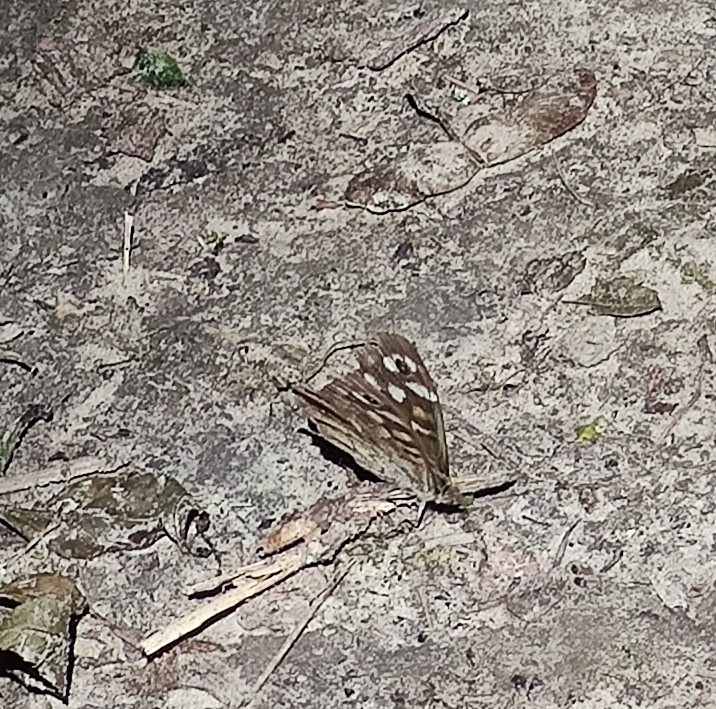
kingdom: Animalia
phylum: Arthropoda
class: Insecta
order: Lepidoptera
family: Nymphalidae
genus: Pararge
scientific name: Pararge aegeria
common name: Speckled wood
